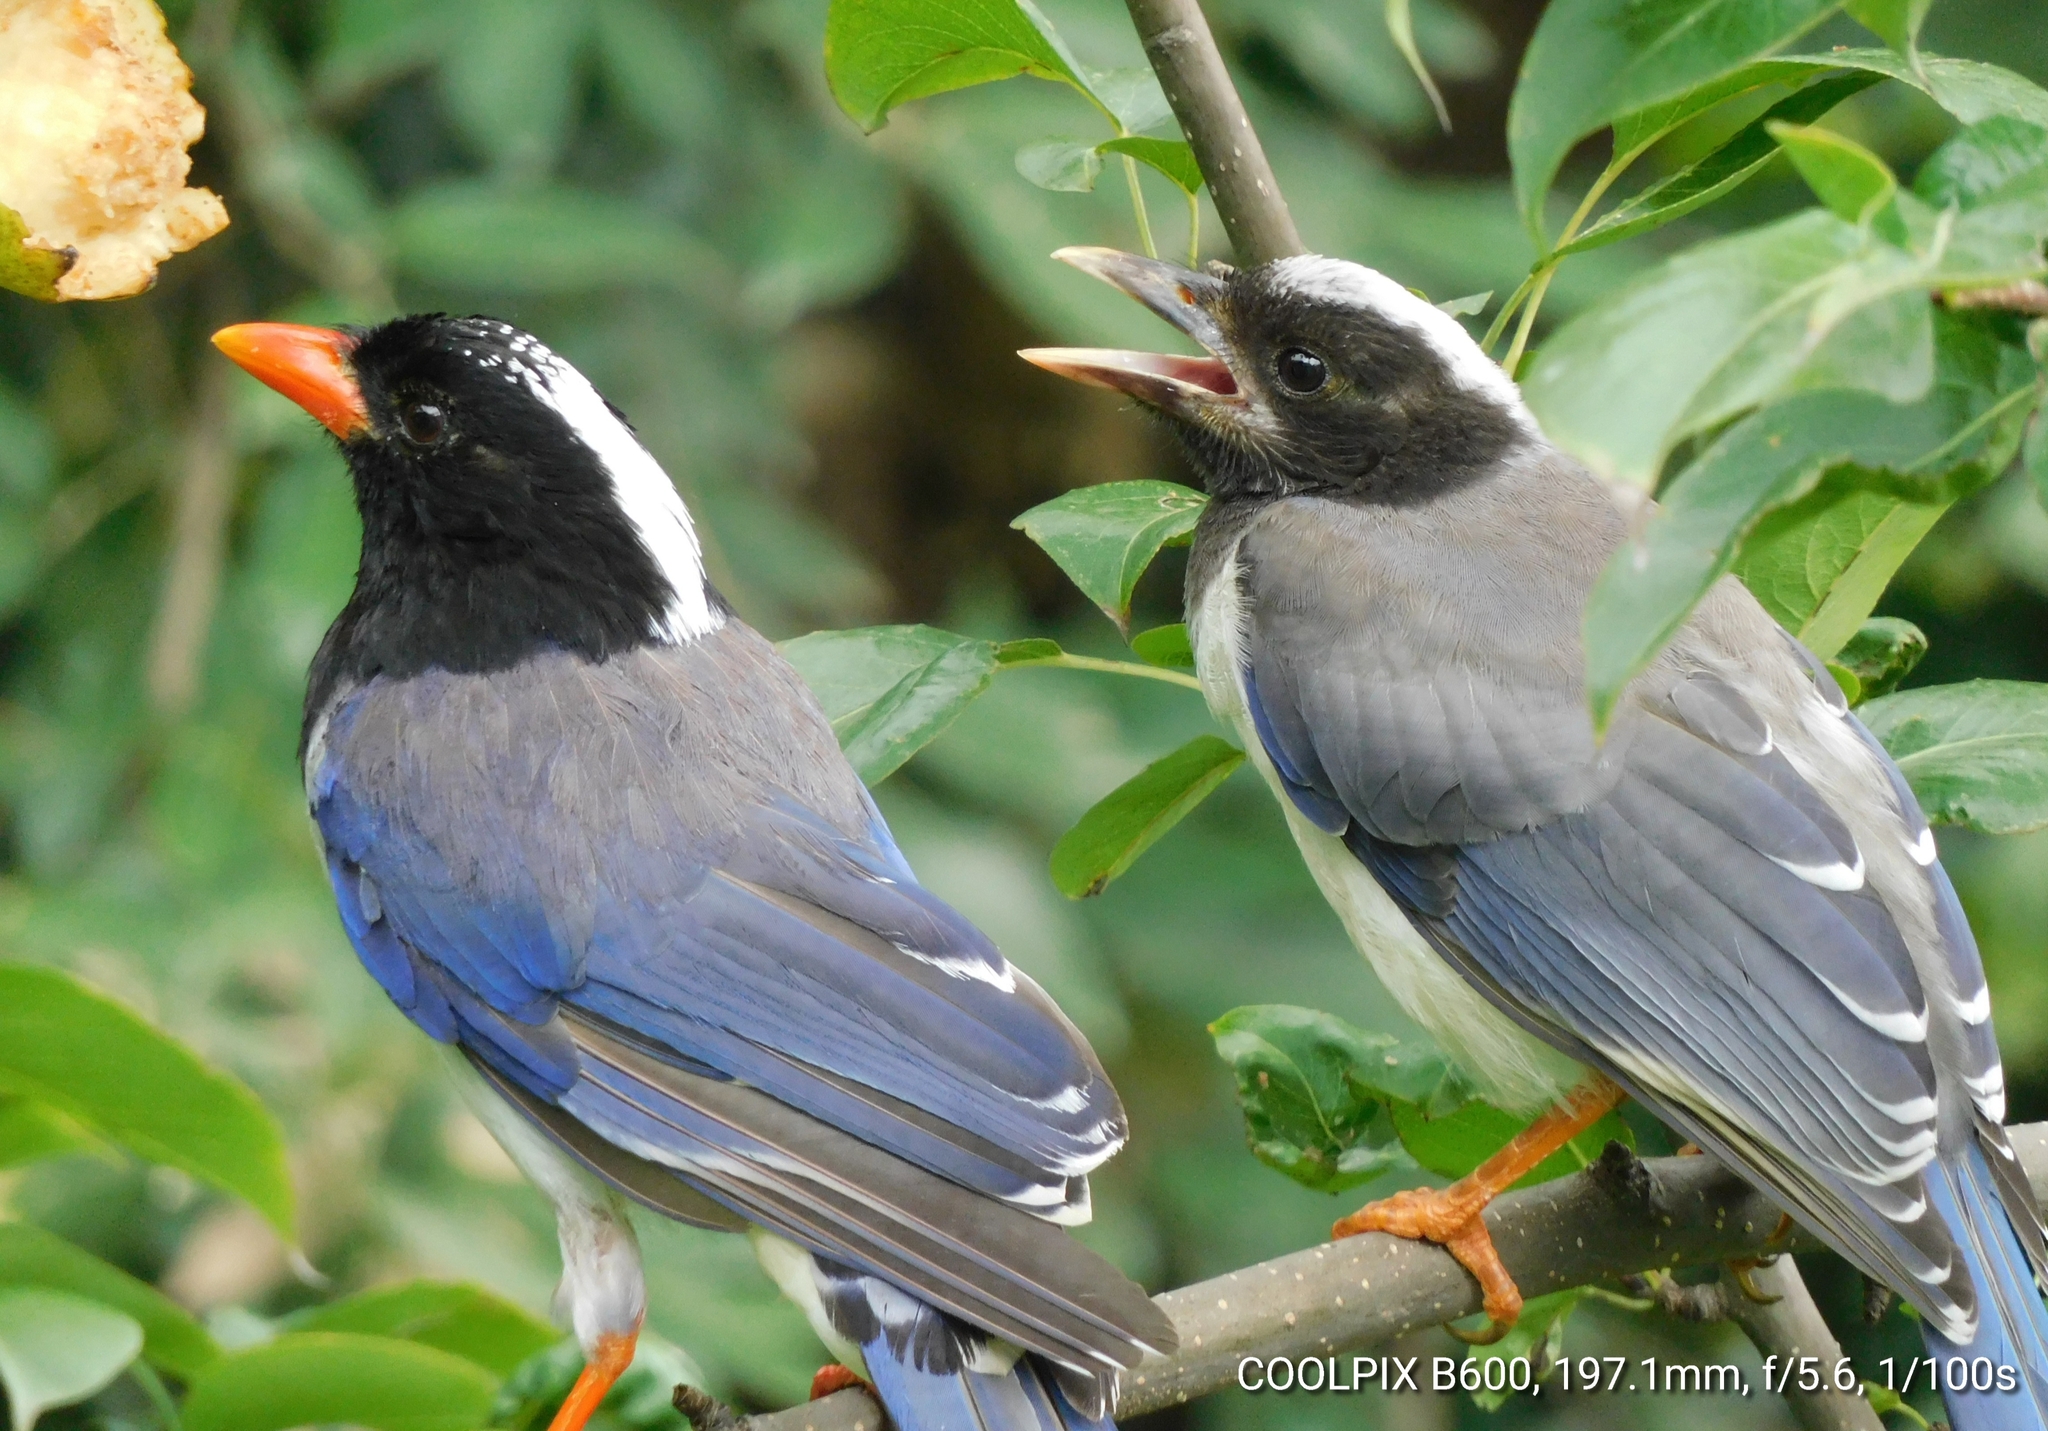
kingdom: Animalia
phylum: Chordata
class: Aves
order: Passeriformes
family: Corvidae
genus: Urocissa
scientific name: Urocissa erythroryncha
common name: Red-billed blue magpie
